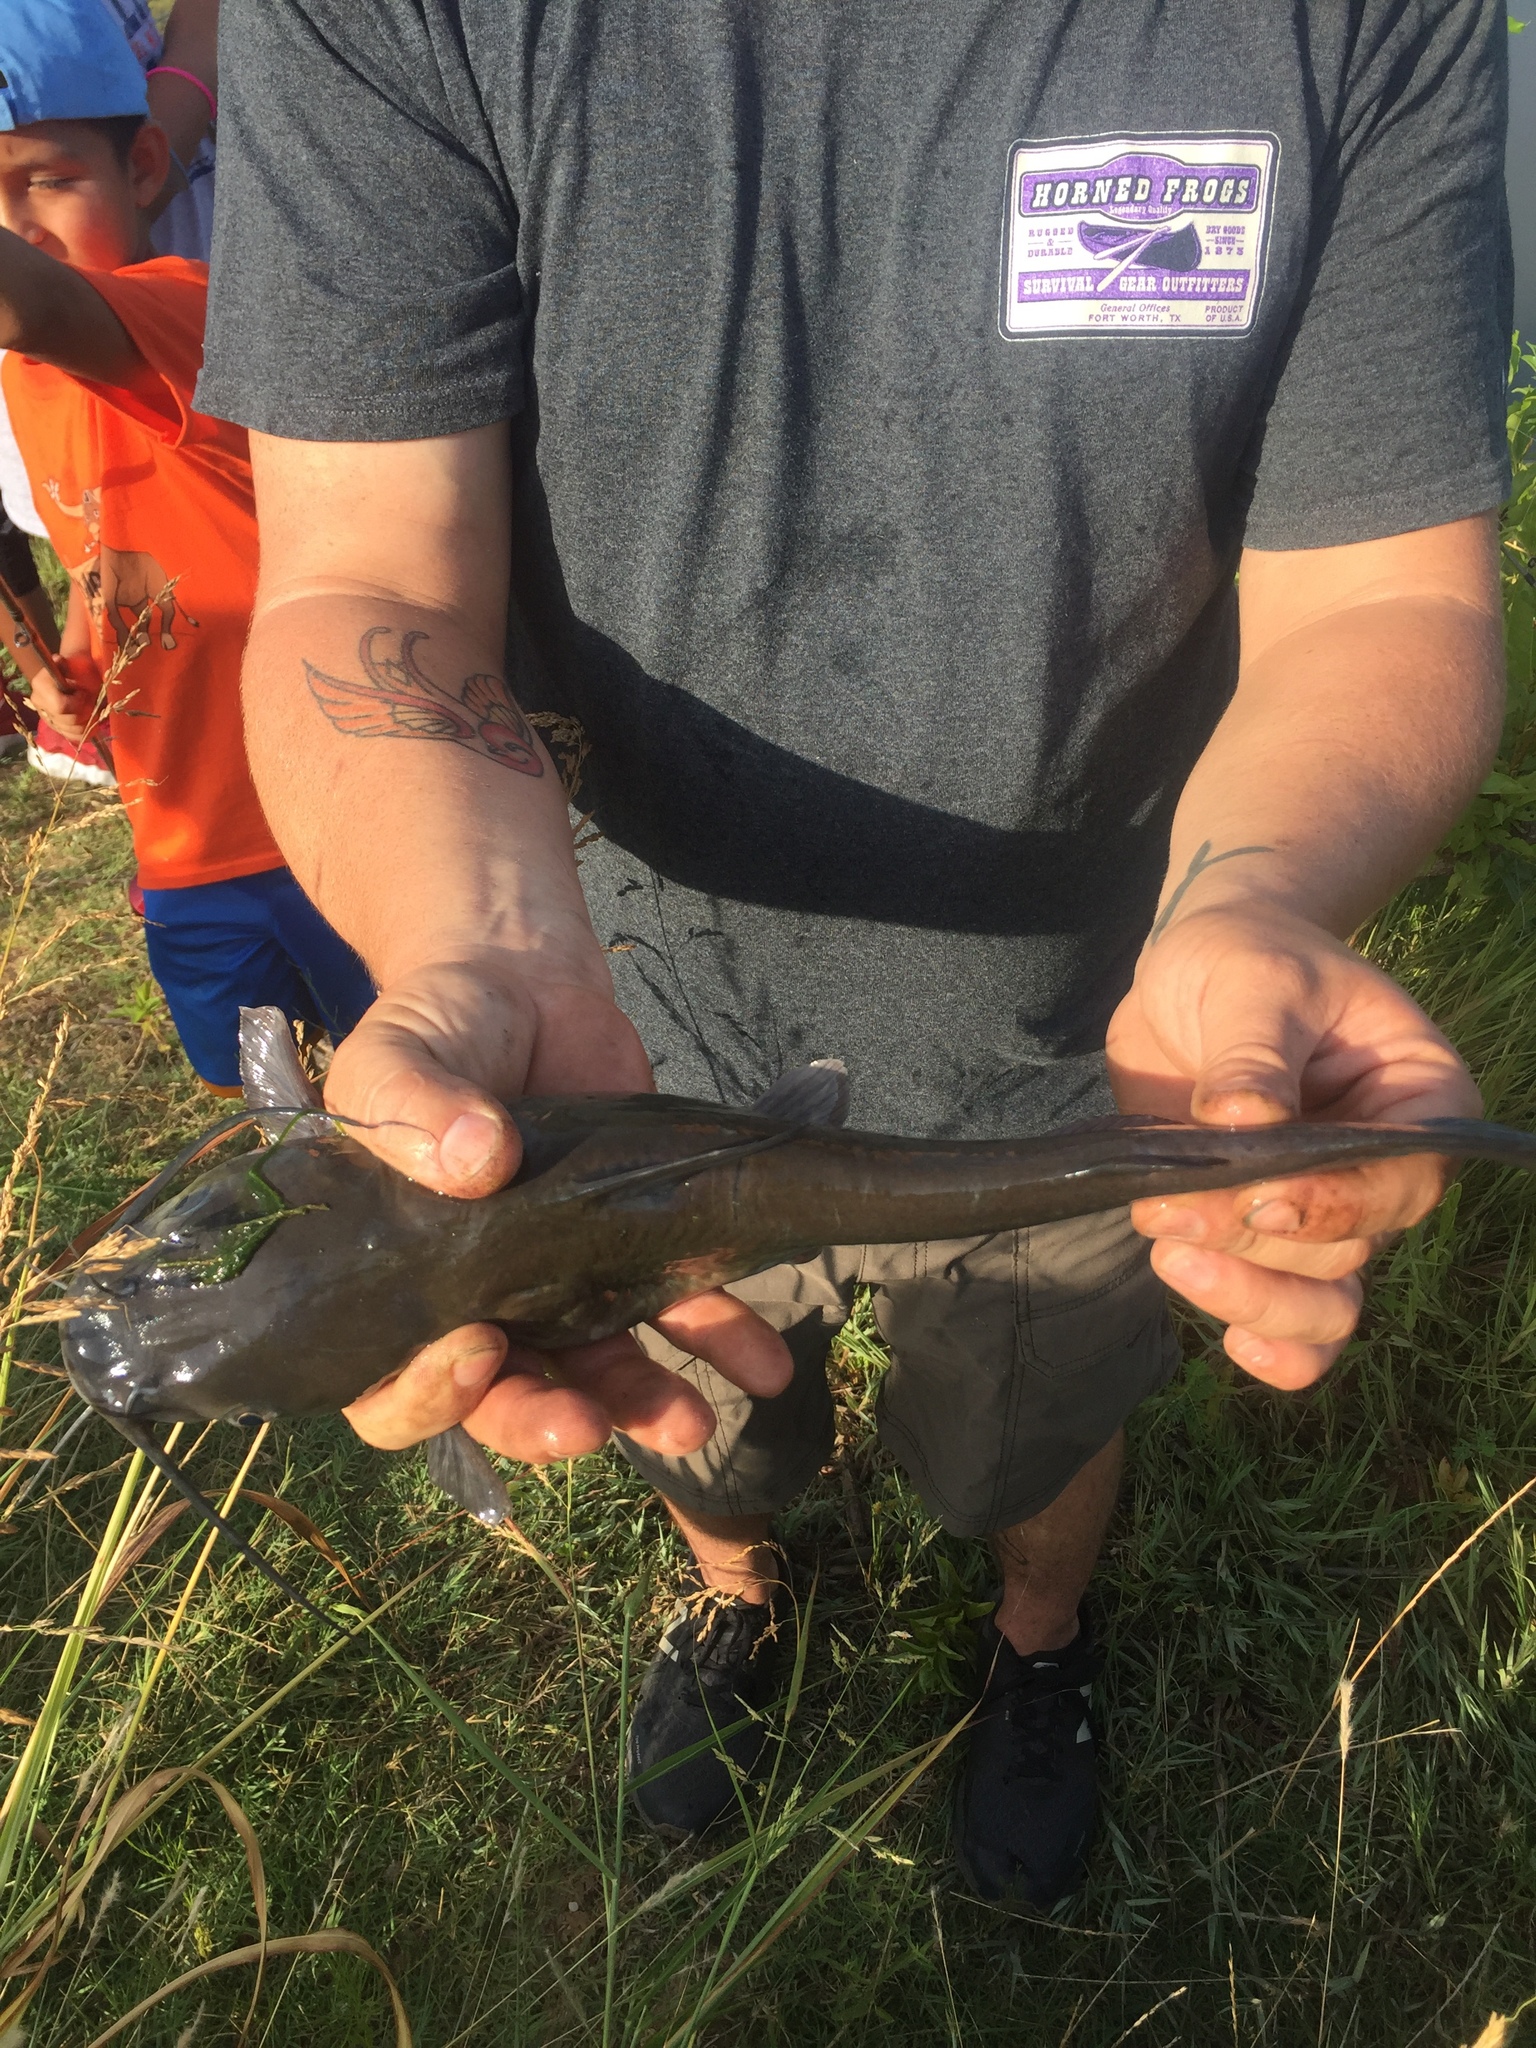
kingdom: Animalia
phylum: Chordata
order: Siluriformes
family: Ictaluridae
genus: Ictalurus
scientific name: Ictalurus punctatus
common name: Channel catfish
